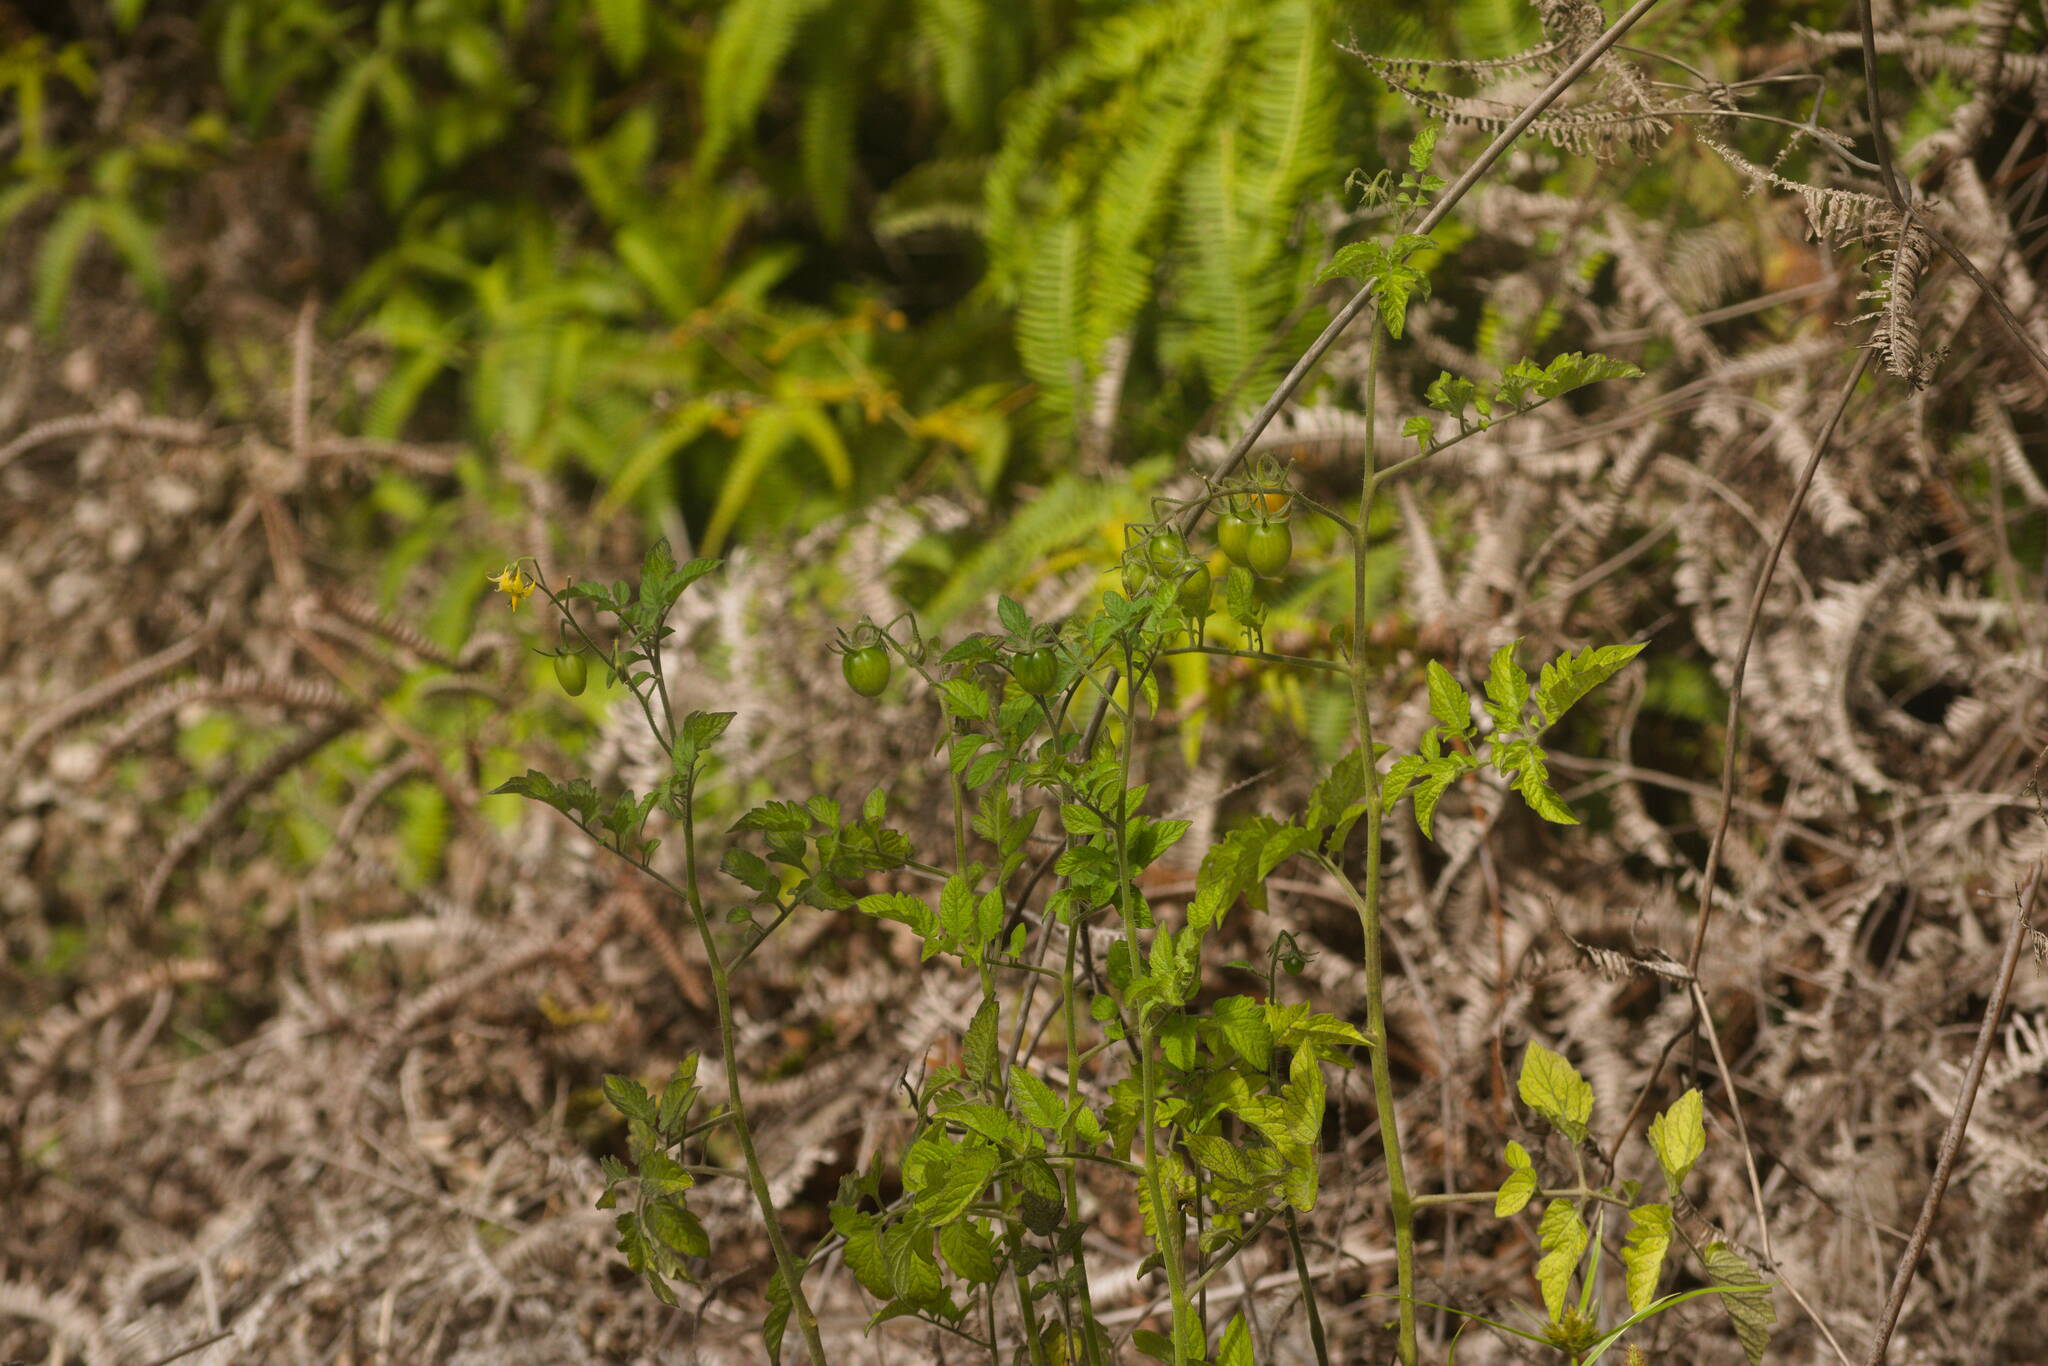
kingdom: Plantae
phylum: Tracheophyta
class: Magnoliopsida
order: Solanales
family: Solanaceae
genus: Solanum
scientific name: Solanum lycopersicum
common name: Garden tomato
